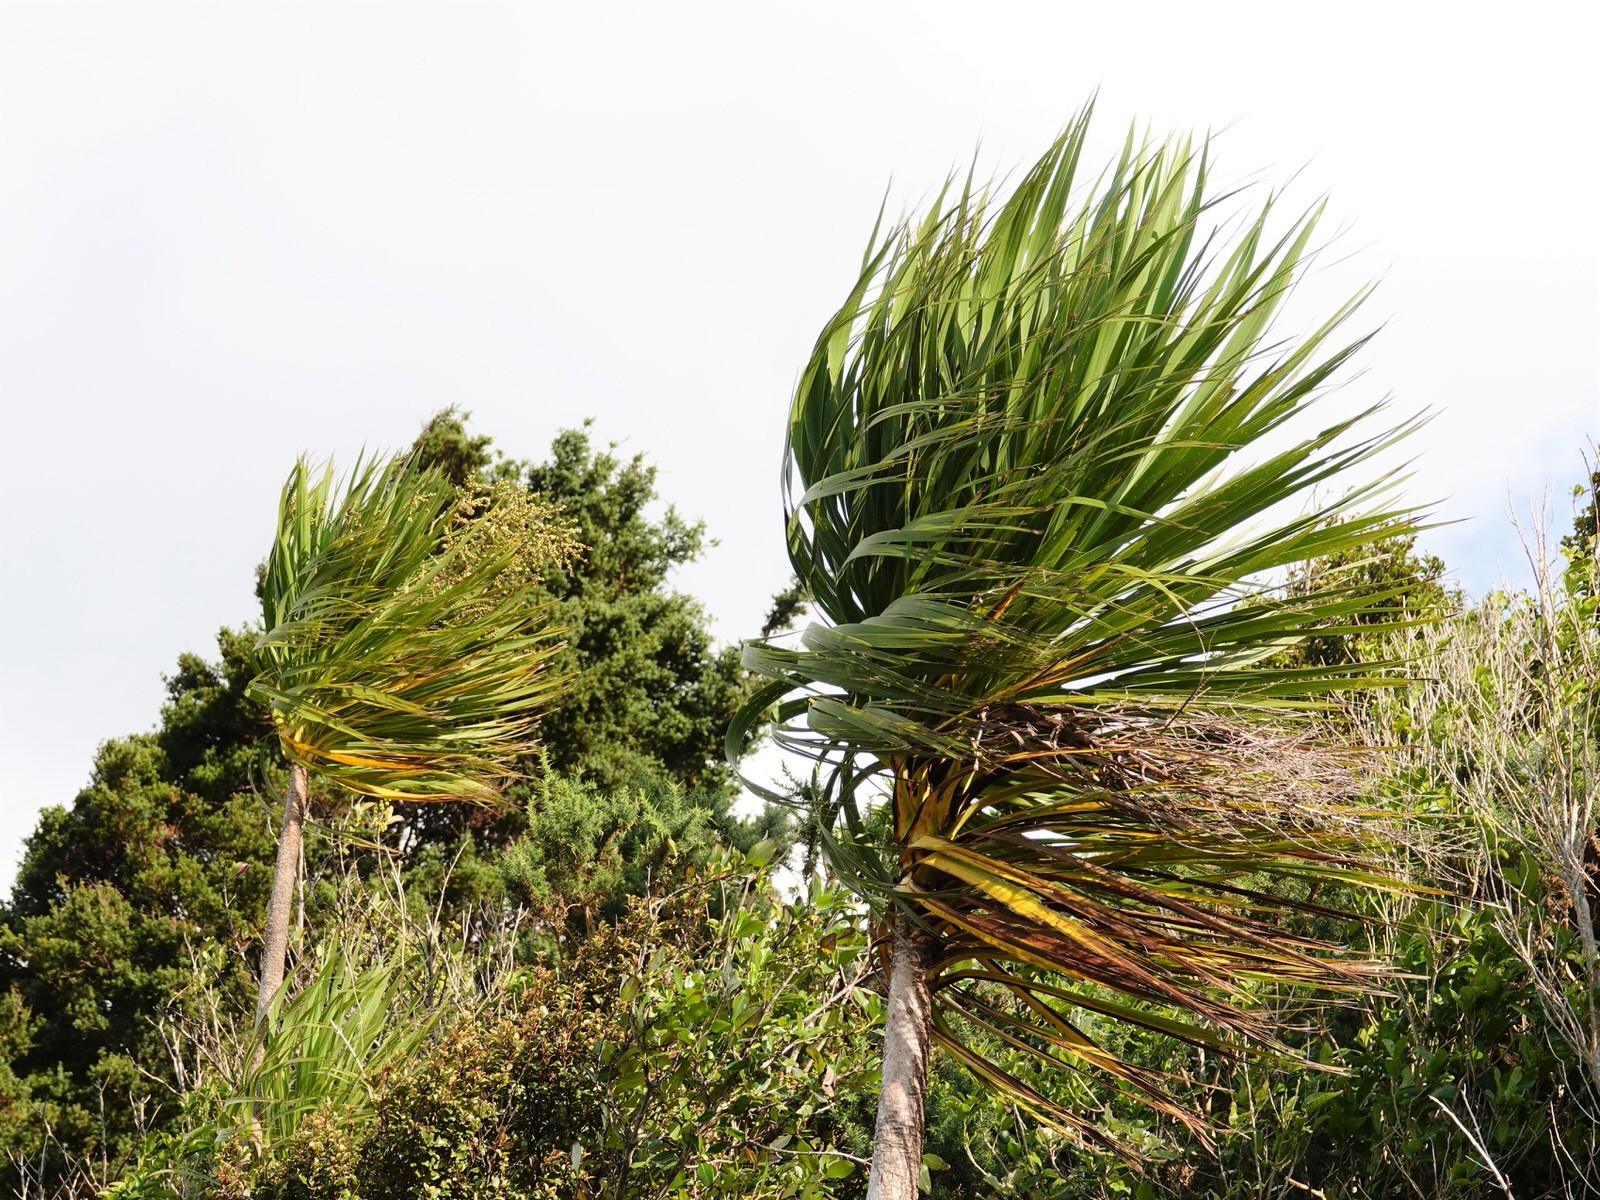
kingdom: Plantae
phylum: Tracheophyta
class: Liliopsida
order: Asparagales
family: Asparagaceae
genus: Cordyline
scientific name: Cordyline australis
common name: Cabbage-palm
